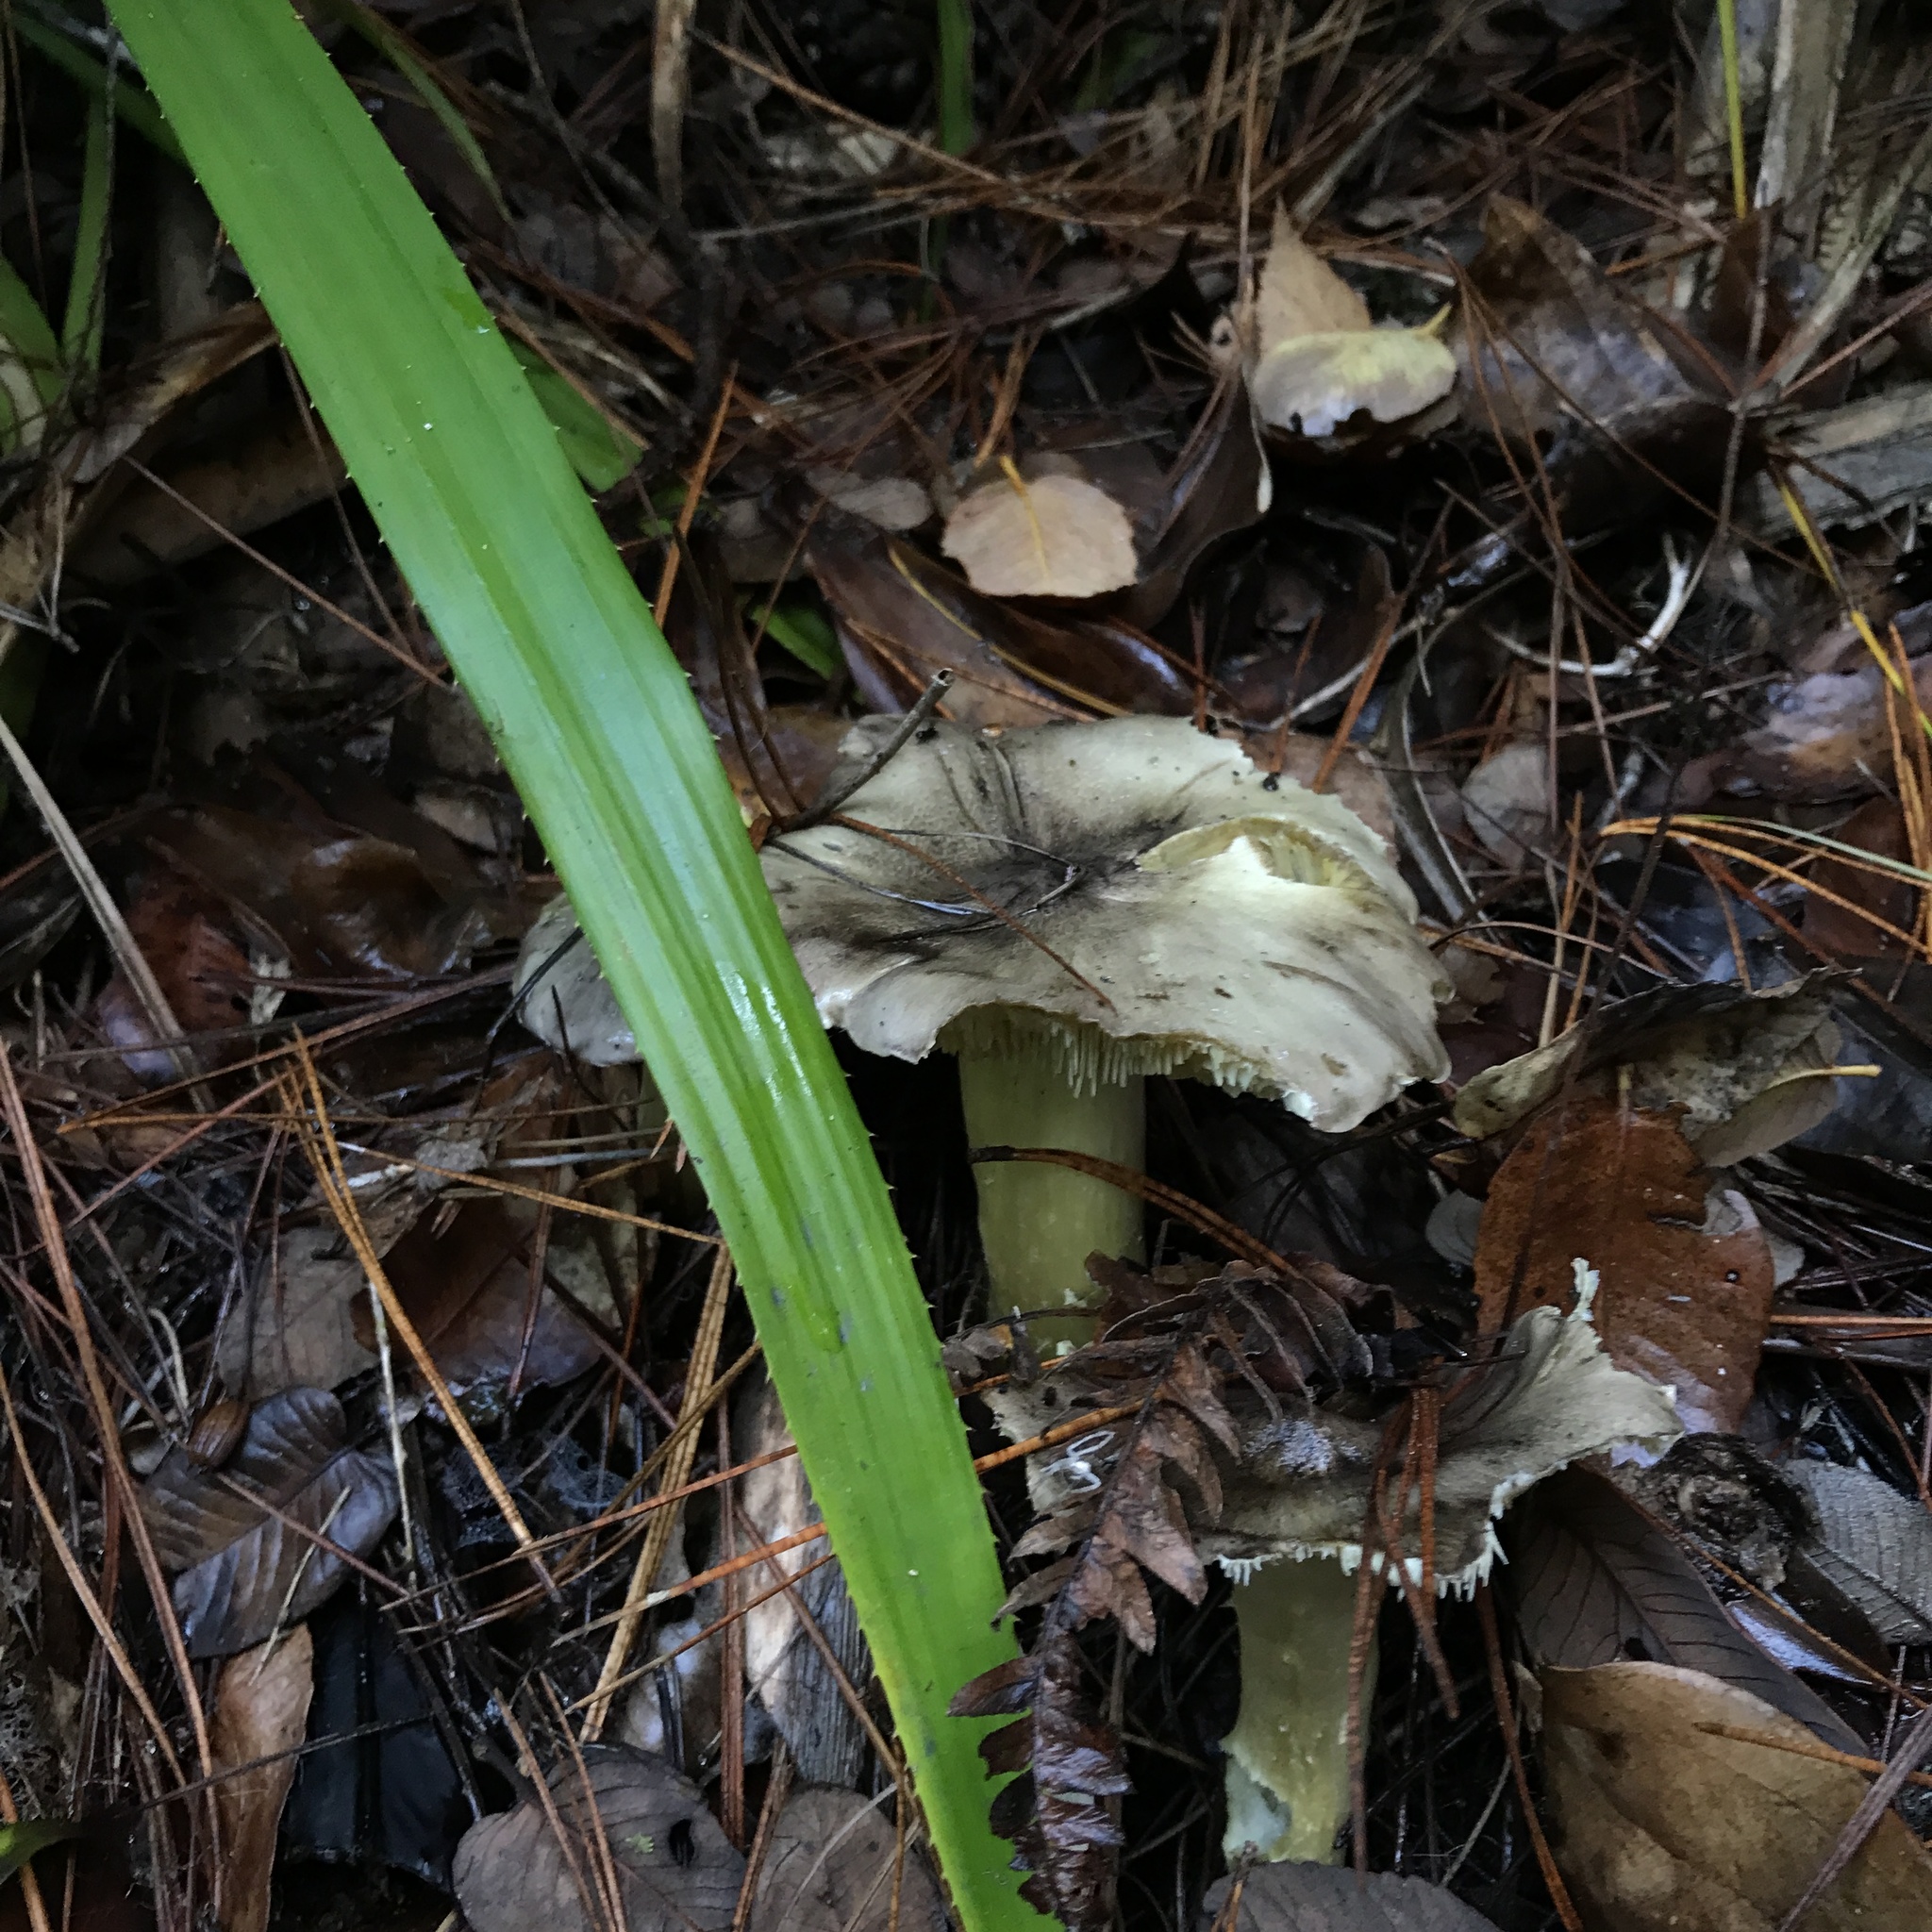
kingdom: Fungi
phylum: Basidiomycota
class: Agaricomycetes
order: Agaricales
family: Tricholomataceae
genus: Porpoloma
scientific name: Porpoloma portentosum
